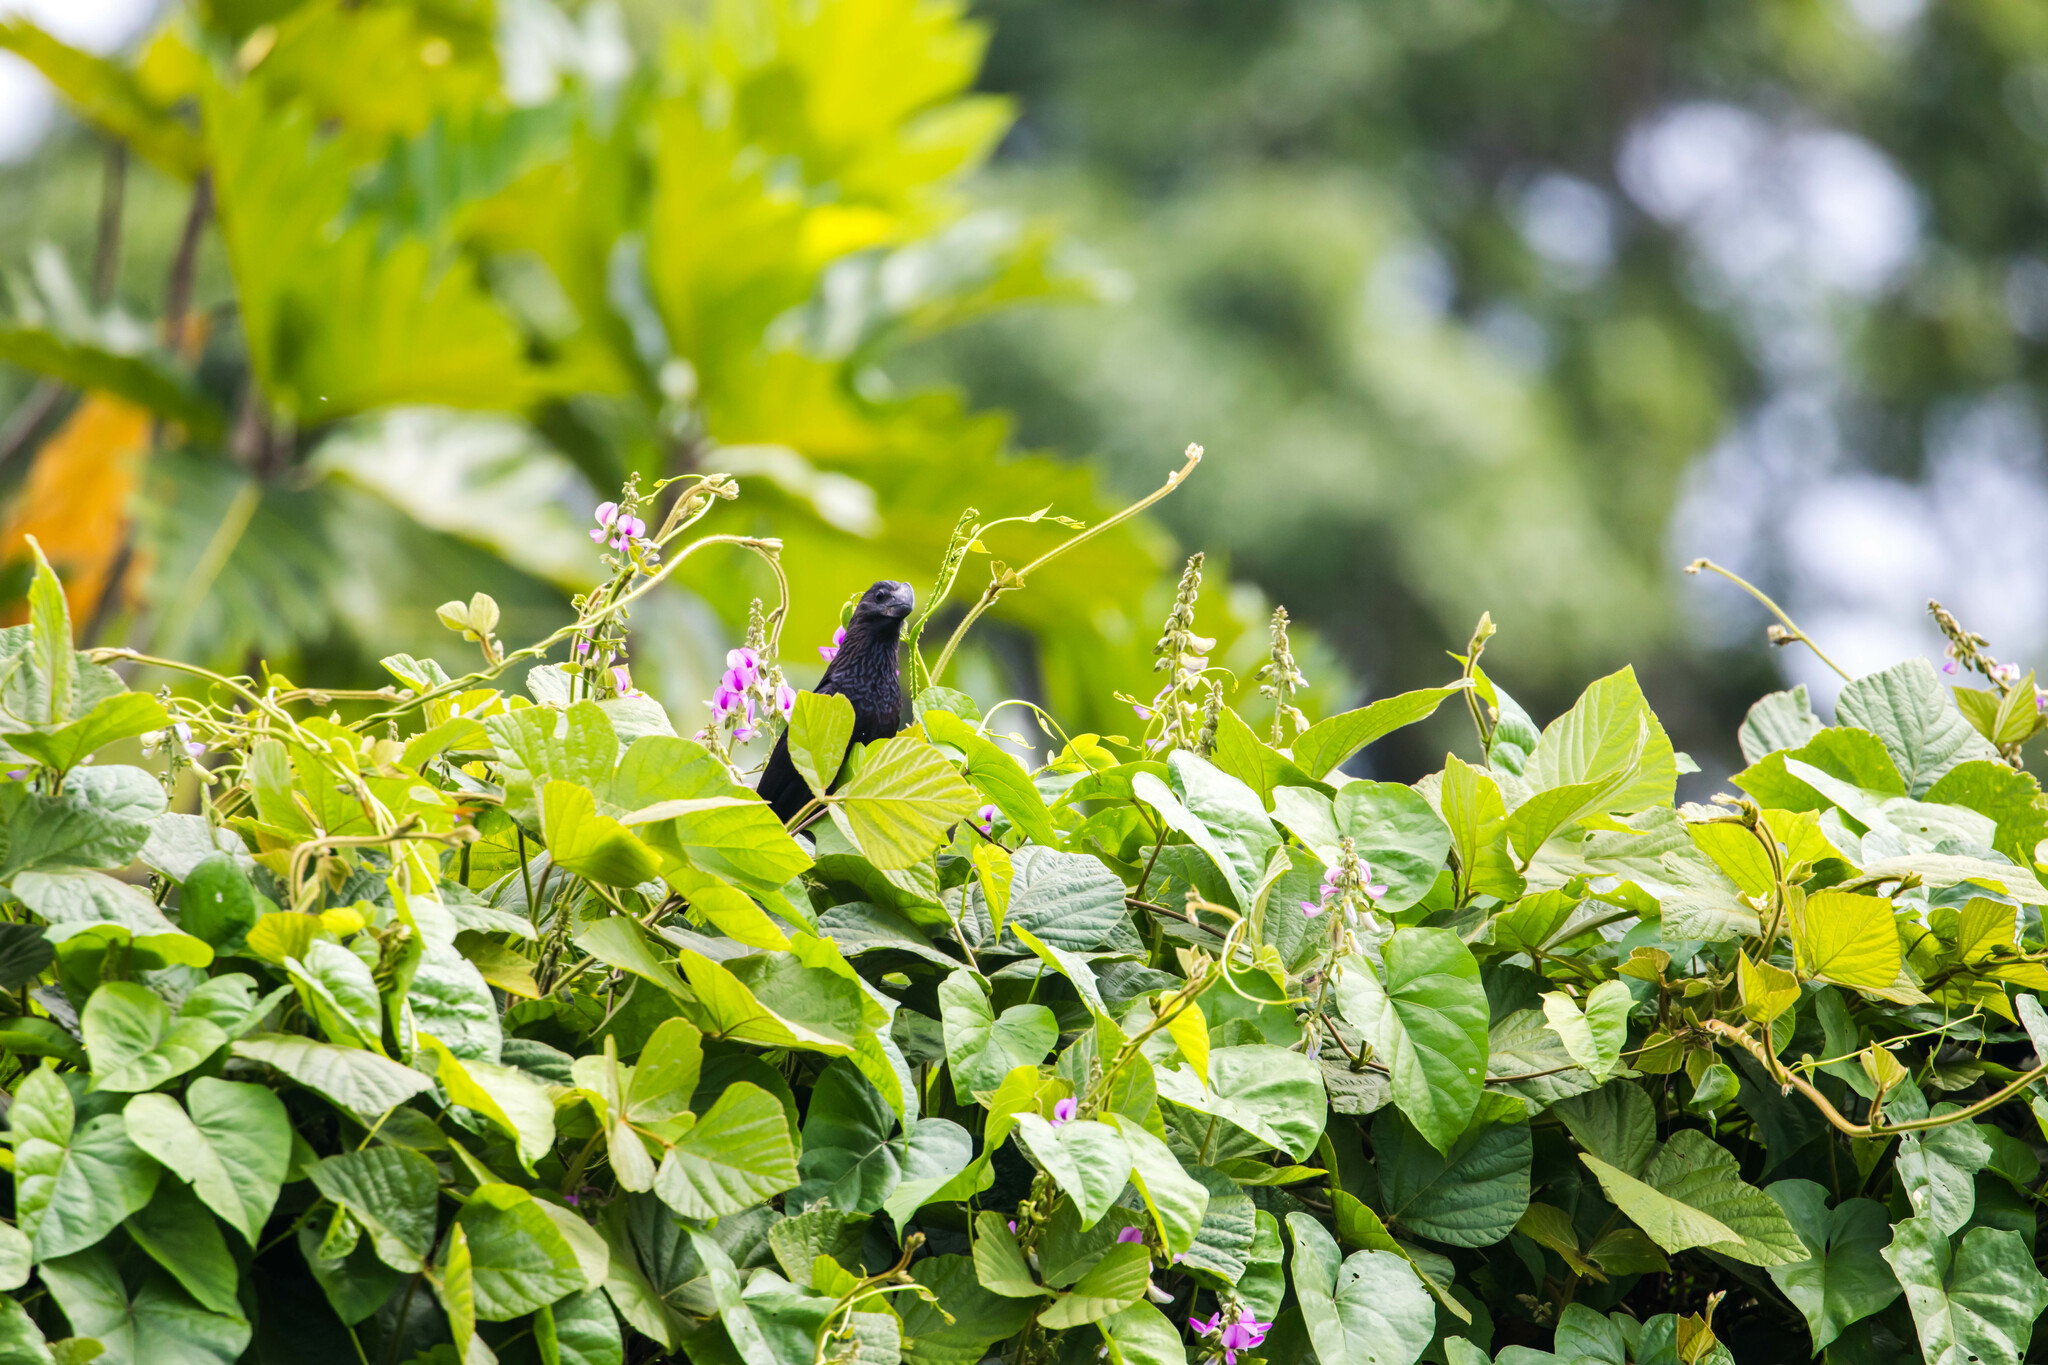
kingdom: Animalia
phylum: Chordata
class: Aves
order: Cuculiformes
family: Cuculidae
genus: Crotophaga
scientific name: Crotophaga ani
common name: Smooth-billed ani
